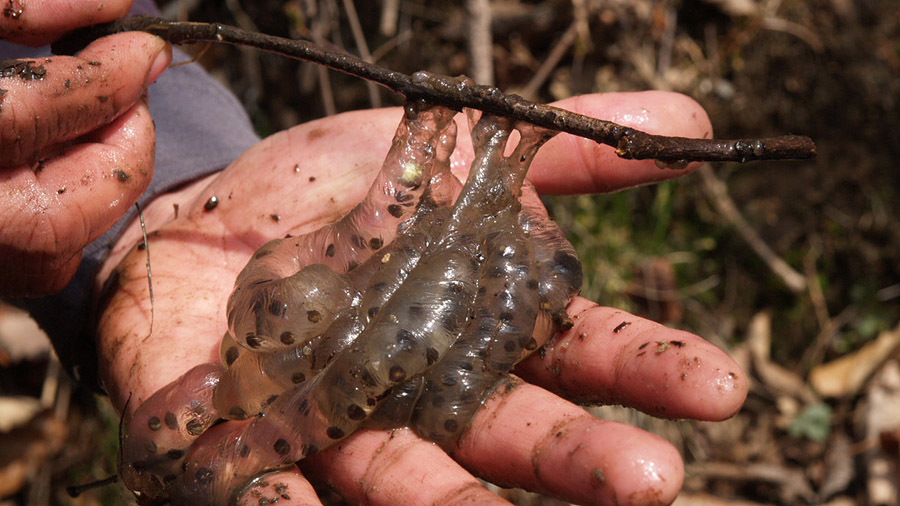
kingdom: Animalia
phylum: Chordata
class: Amphibia
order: Caudata
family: Hynobiidae
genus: Hynobius
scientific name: Hynobius leechii
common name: Gensan salamander
